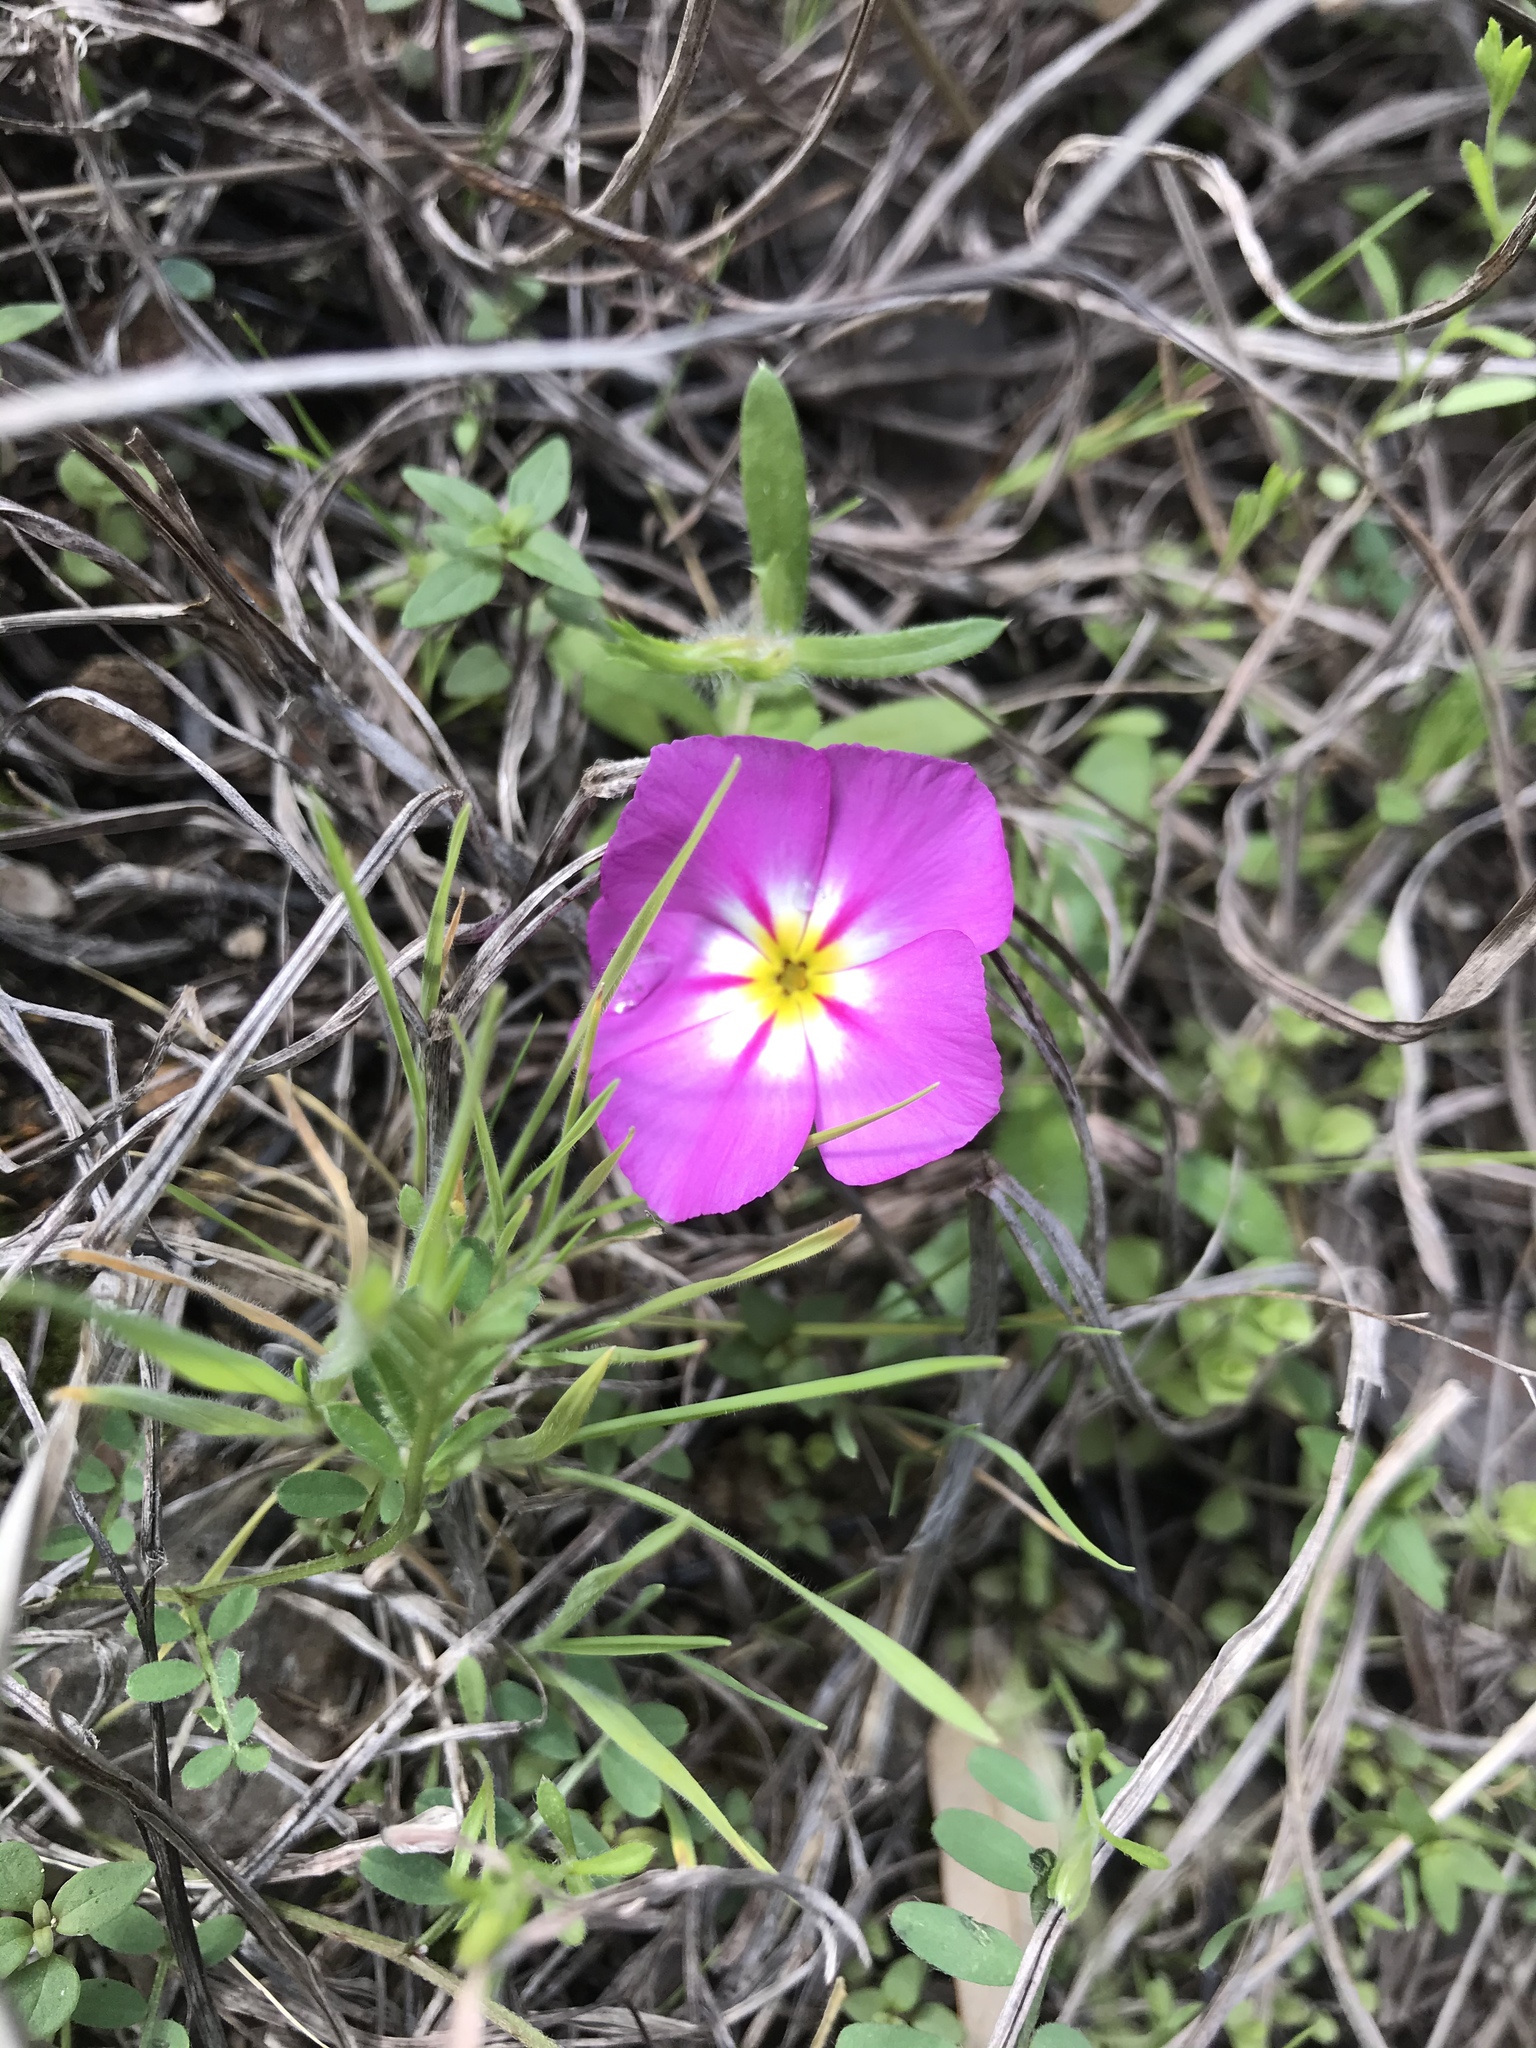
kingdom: Plantae
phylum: Tracheophyta
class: Magnoliopsida
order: Ericales
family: Polemoniaceae
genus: Phlox
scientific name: Phlox roemeriana
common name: Roemer's phlox
